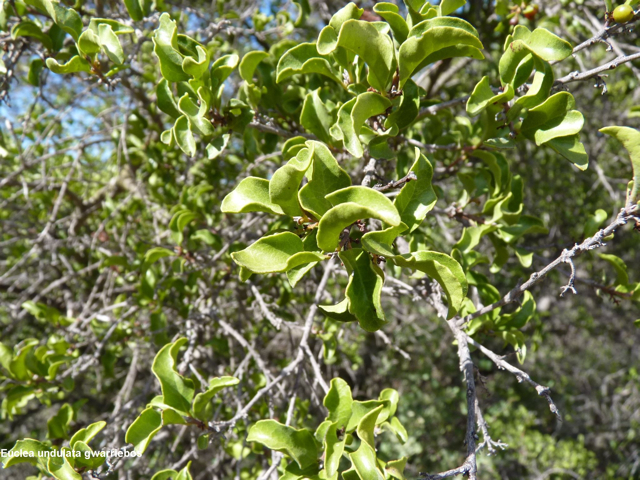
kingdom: Plantae
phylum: Tracheophyta
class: Magnoliopsida
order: Ericales
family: Ebenaceae
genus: Euclea
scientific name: Euclea undulata
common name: Small-leaved guarri
